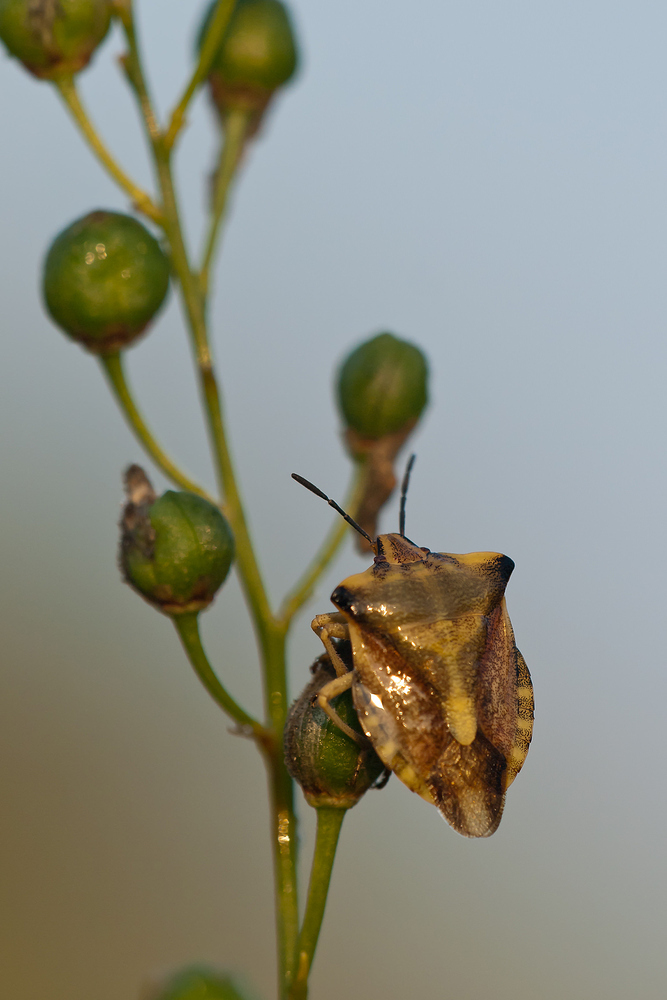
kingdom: Animalia
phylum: Arthropoda
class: Insecta
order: Hemiptera
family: Pentatomidae
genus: Carpocoris
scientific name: Carpocoris fuscispinus
